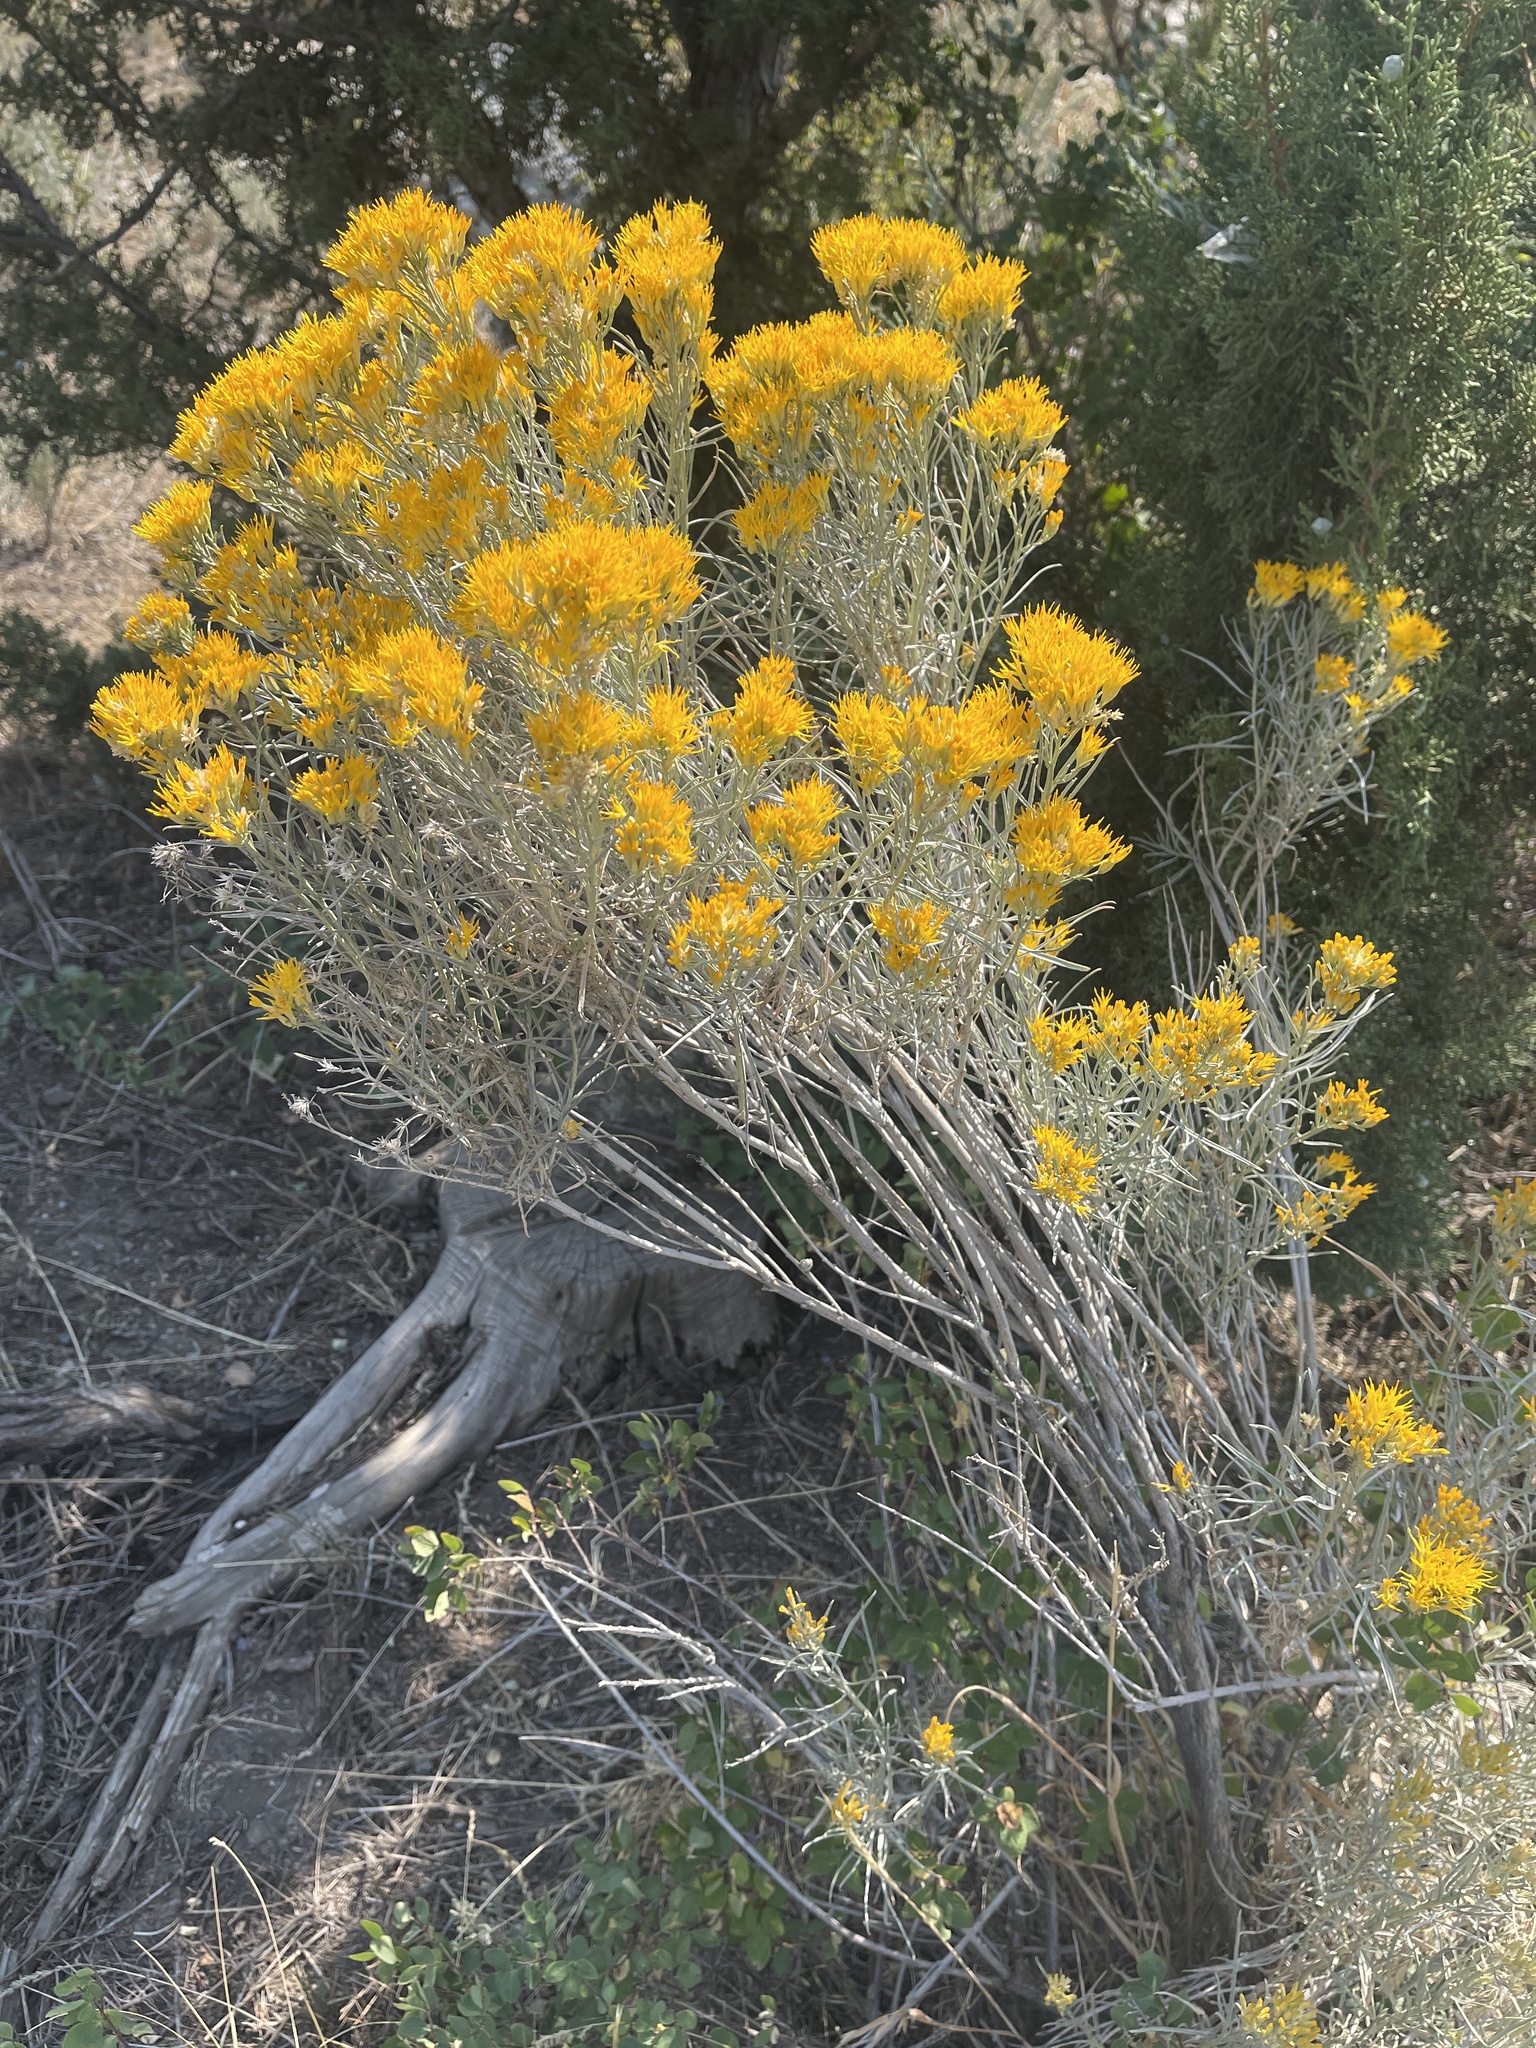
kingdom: Plantae
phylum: Tracheophyta
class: Magnoliopsida
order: Asterales
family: Asteraceae
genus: Ericameria
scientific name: Ericameria nauseosa
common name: Rubber rabbitbrush
